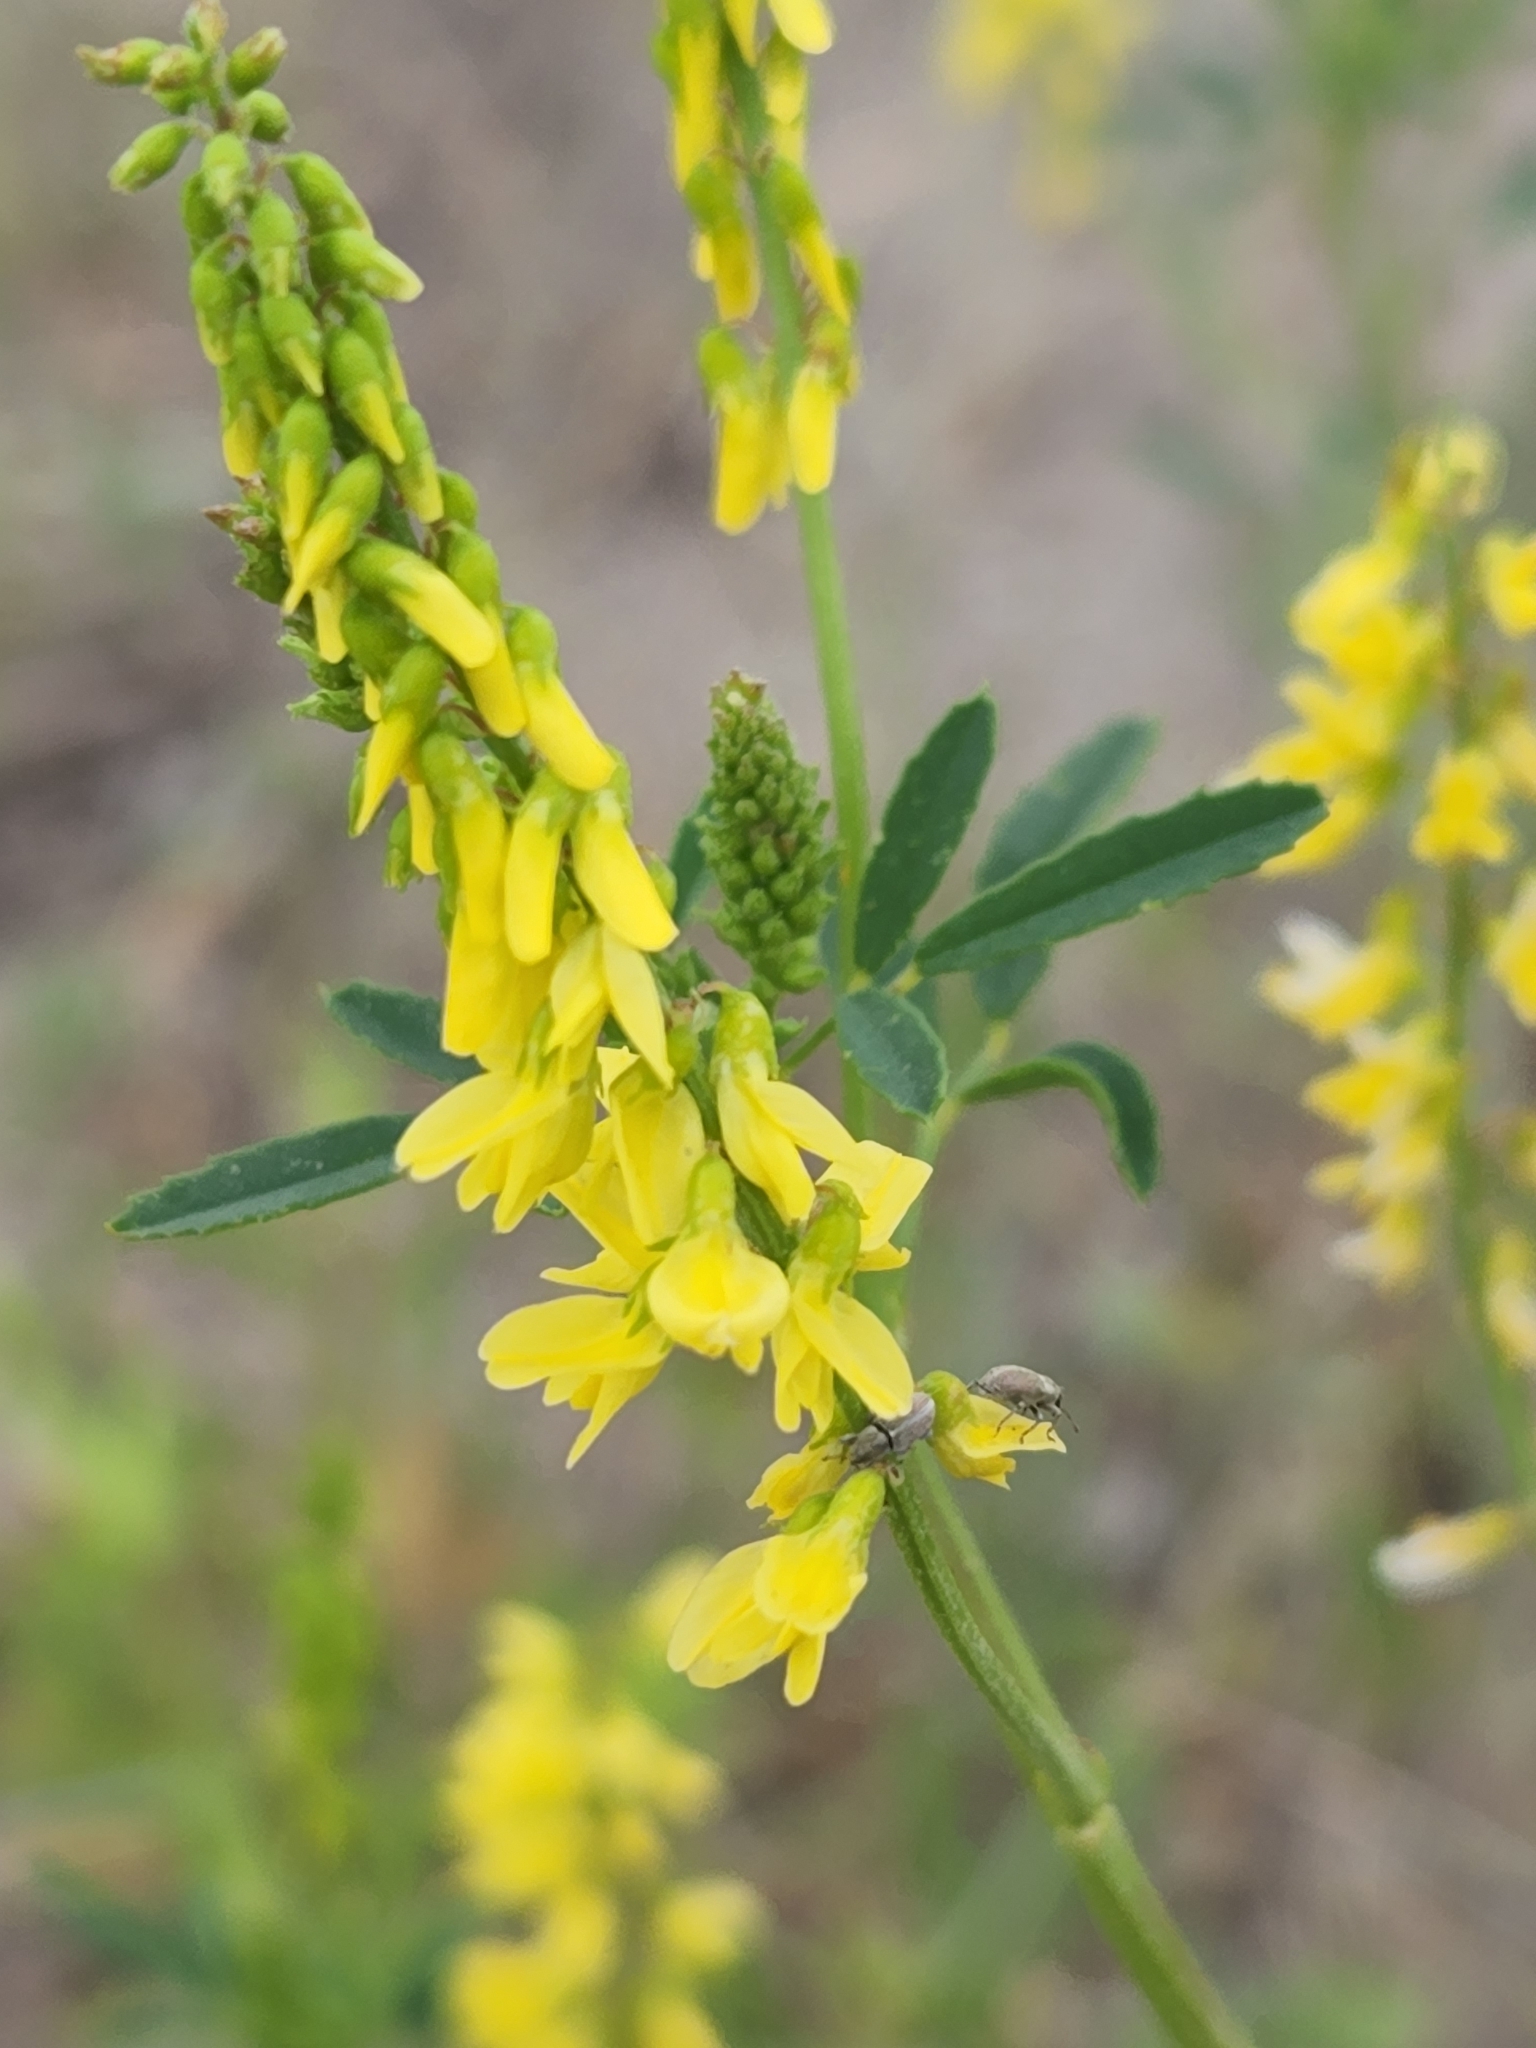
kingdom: Plantae
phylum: Tracheophyta
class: Magnoliopsida
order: Fabales
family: Fabaceae
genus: Melilotus
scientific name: Melilotus officinalis
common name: Sweetclover
